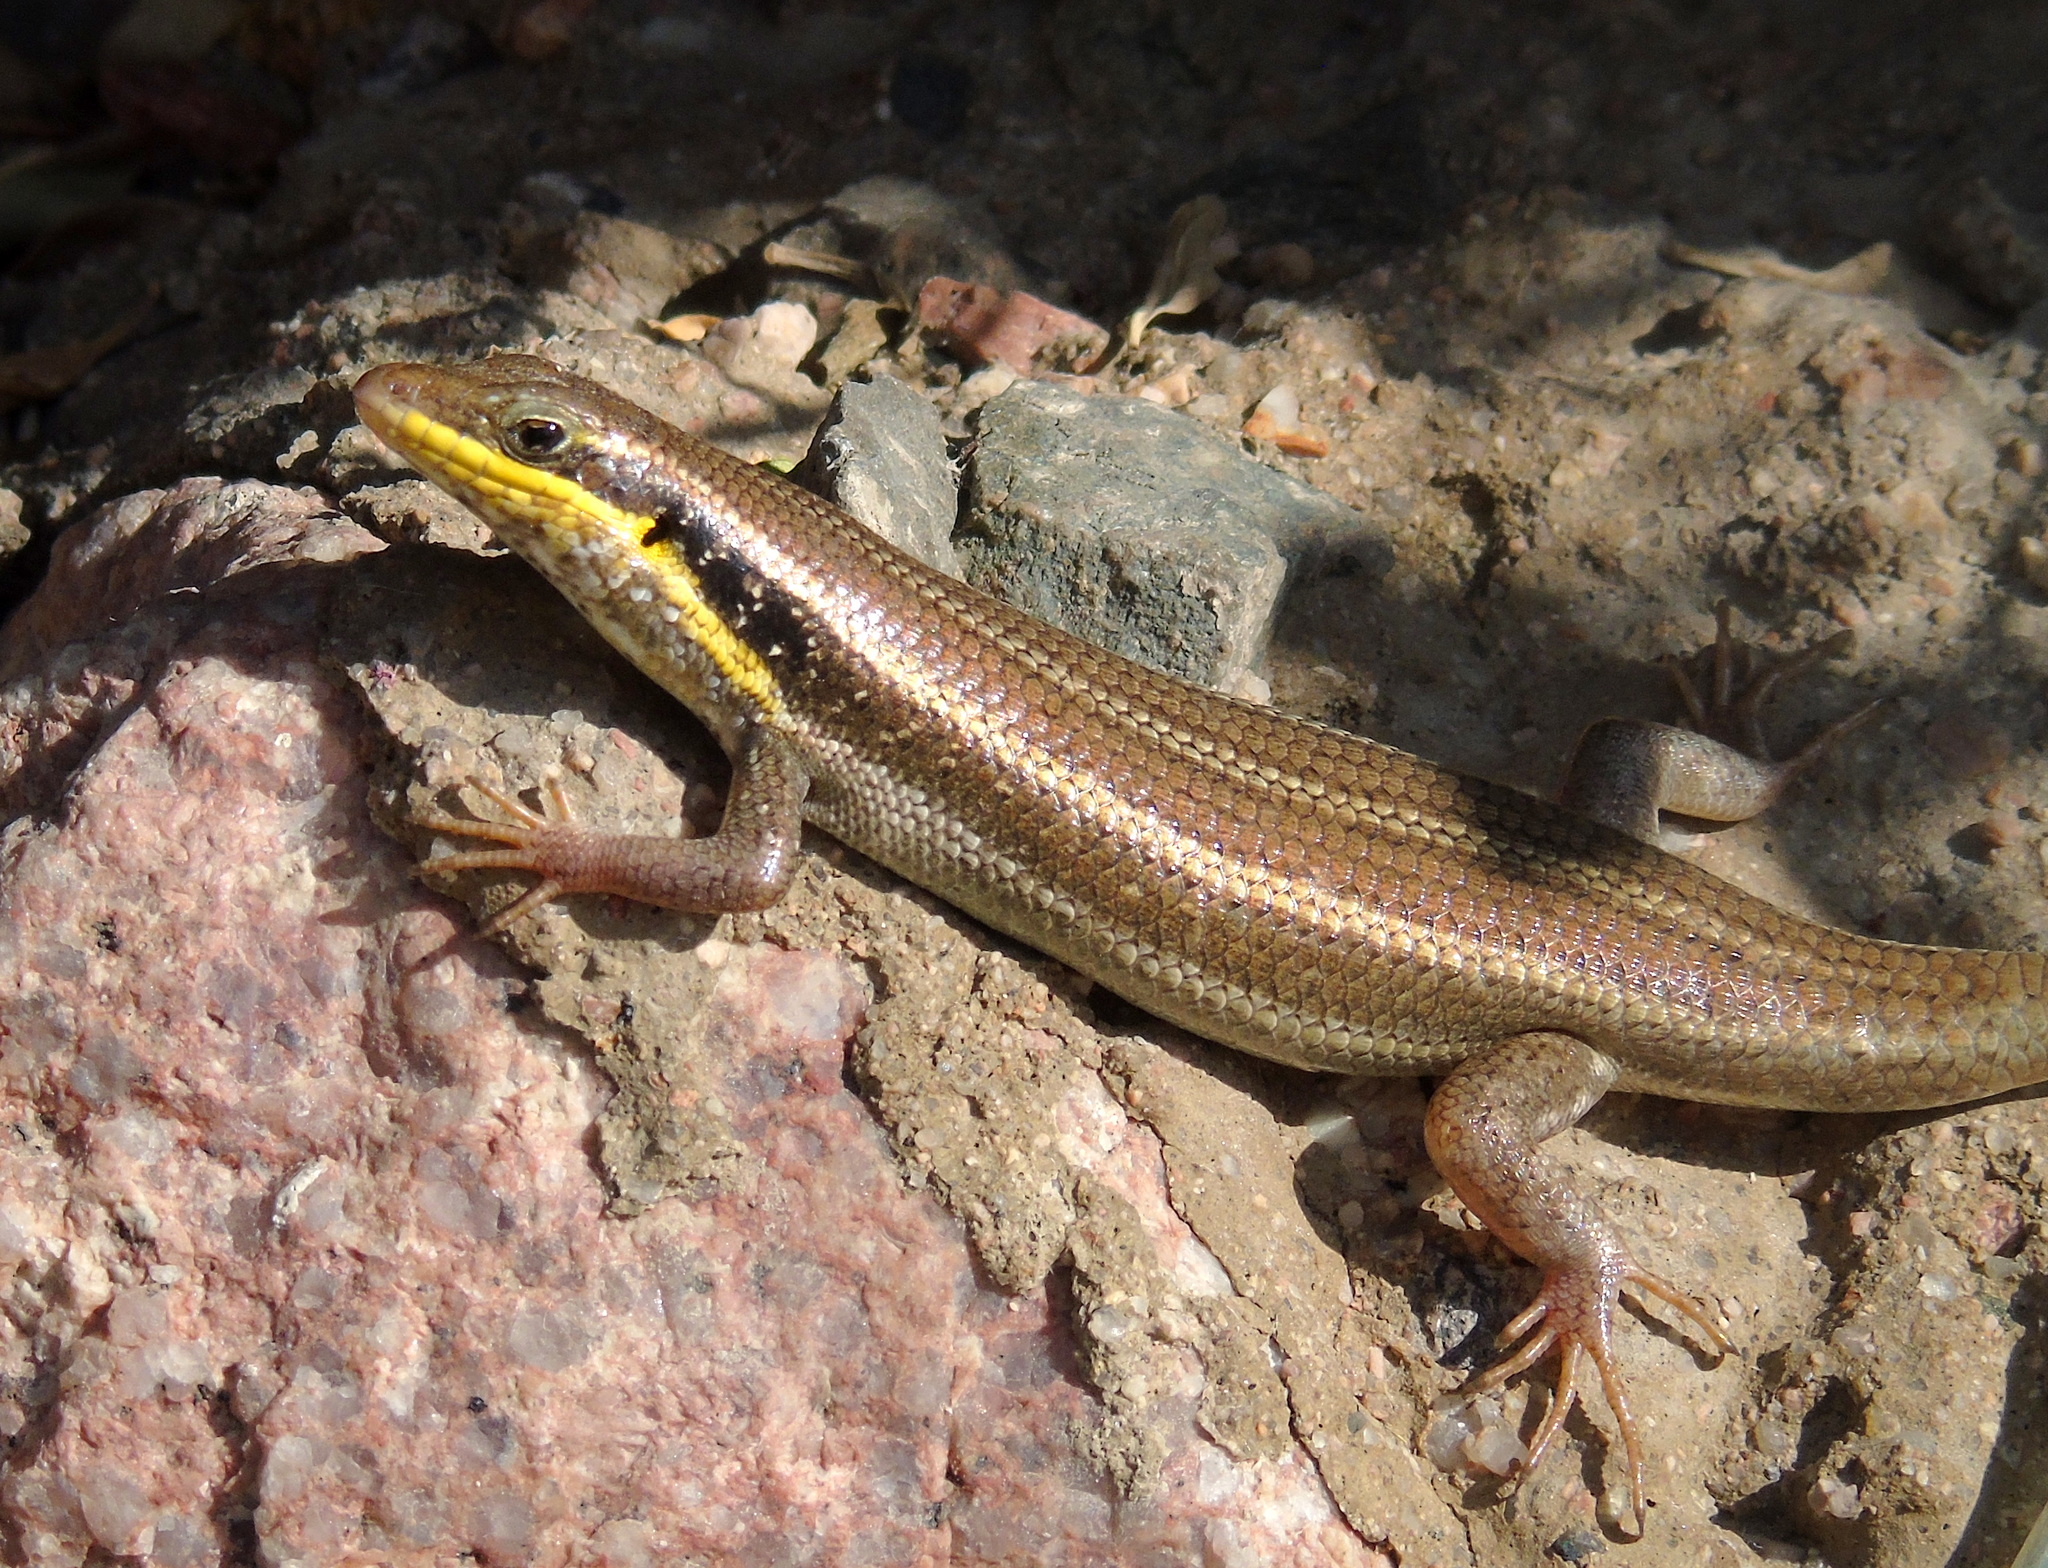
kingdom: Animalia
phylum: Chordata
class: Squamata
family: Scincidae
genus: Trachylepis
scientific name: Trachylepis quinquetaeniata
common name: African five-lined skink
